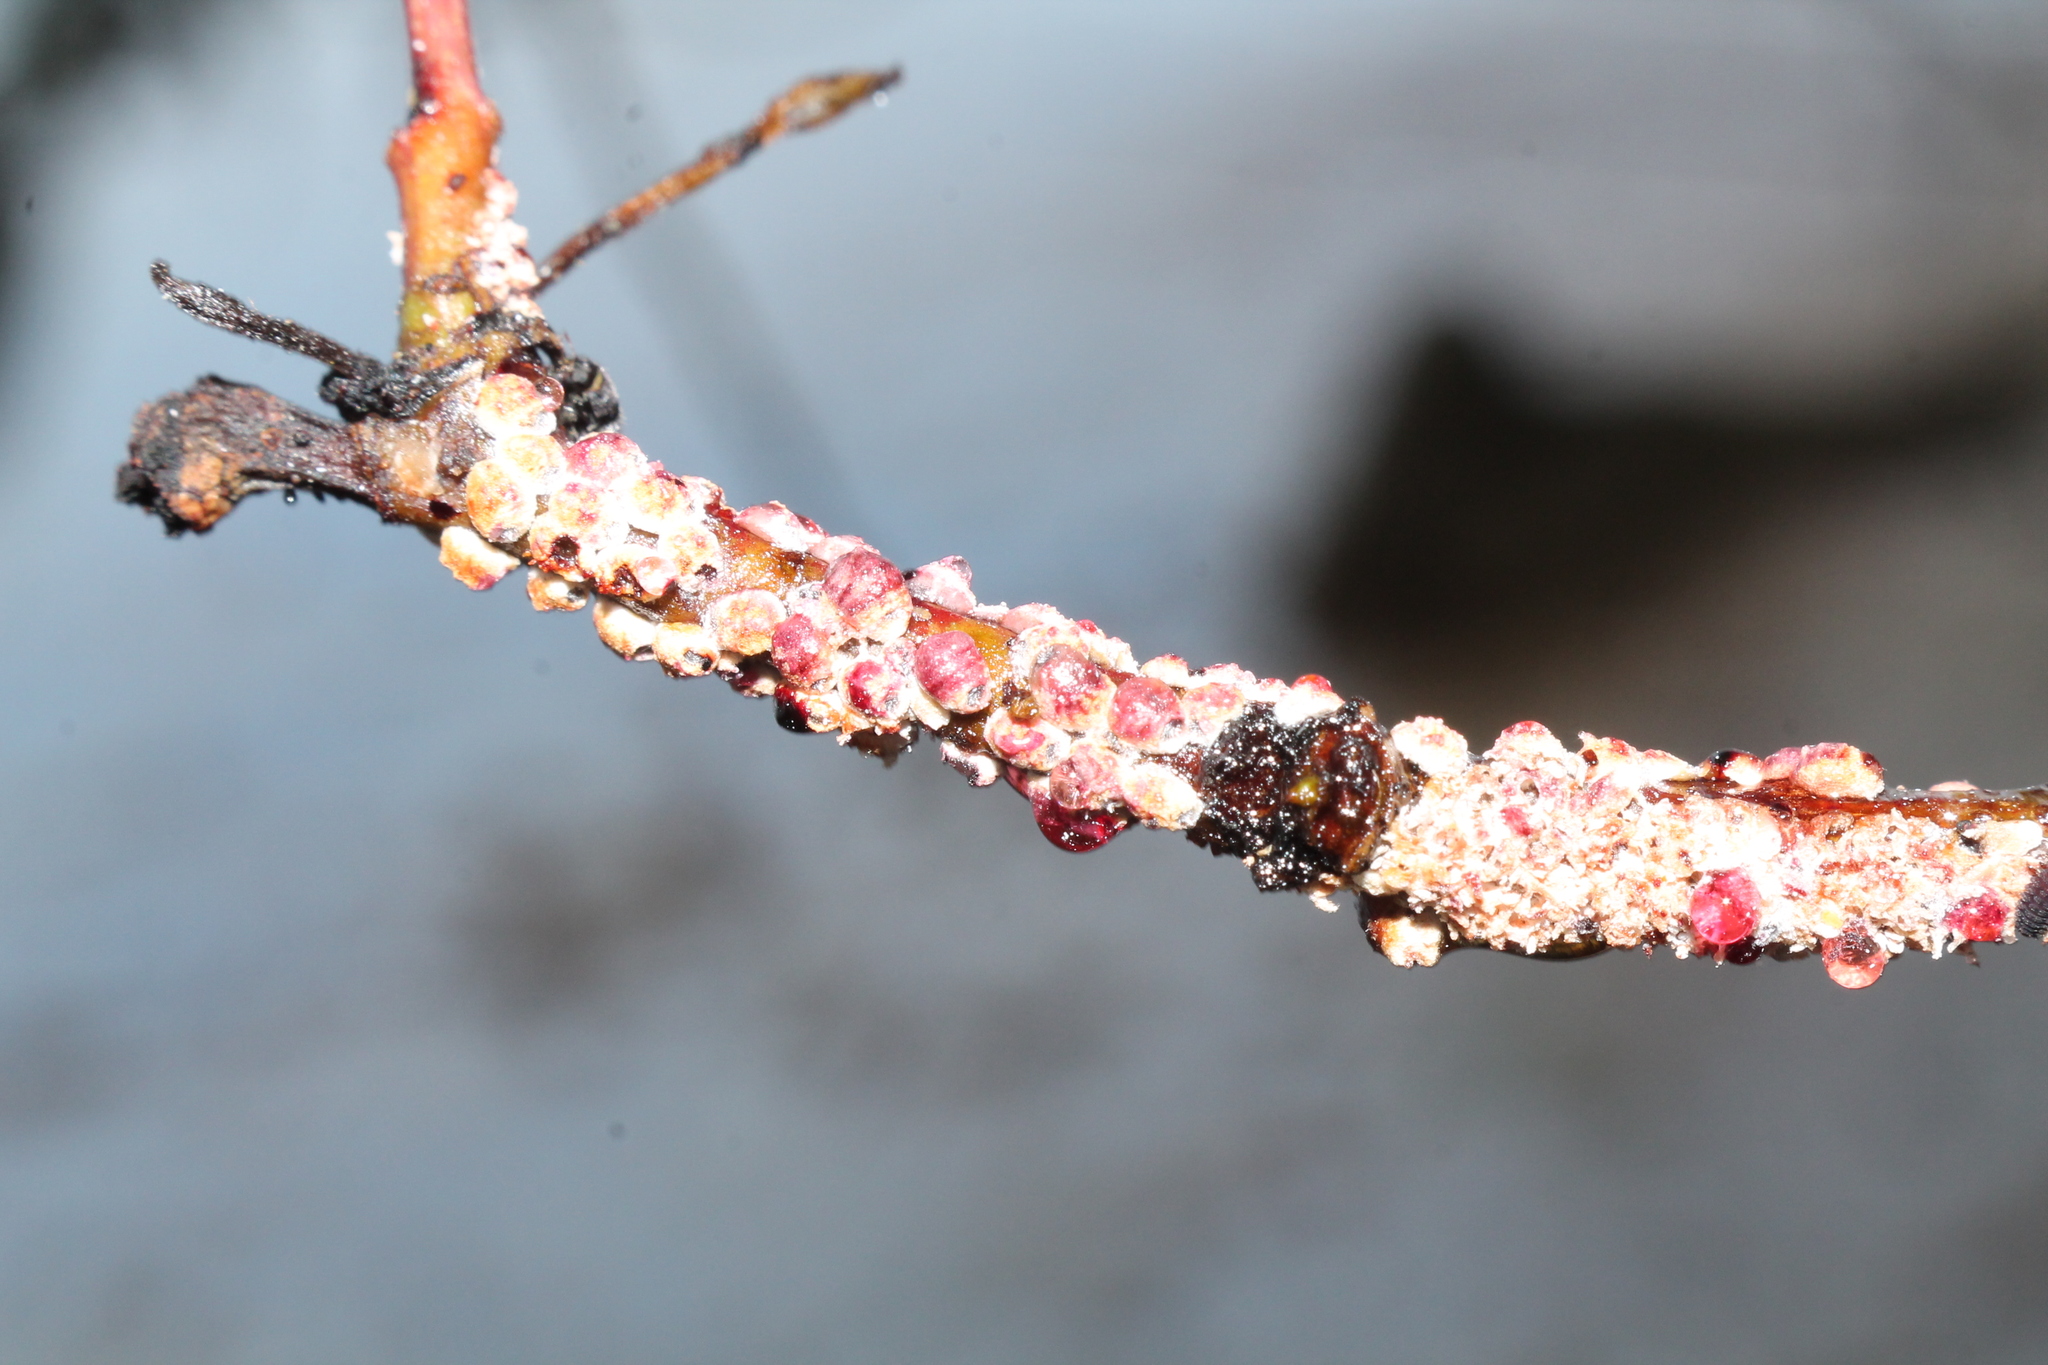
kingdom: Animalia
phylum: Arthropoda
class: Insecta
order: Hemiptera
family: Eriococcidae
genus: Eriococcus
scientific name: Eriococcus coriaceus
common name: Blue gum scale
